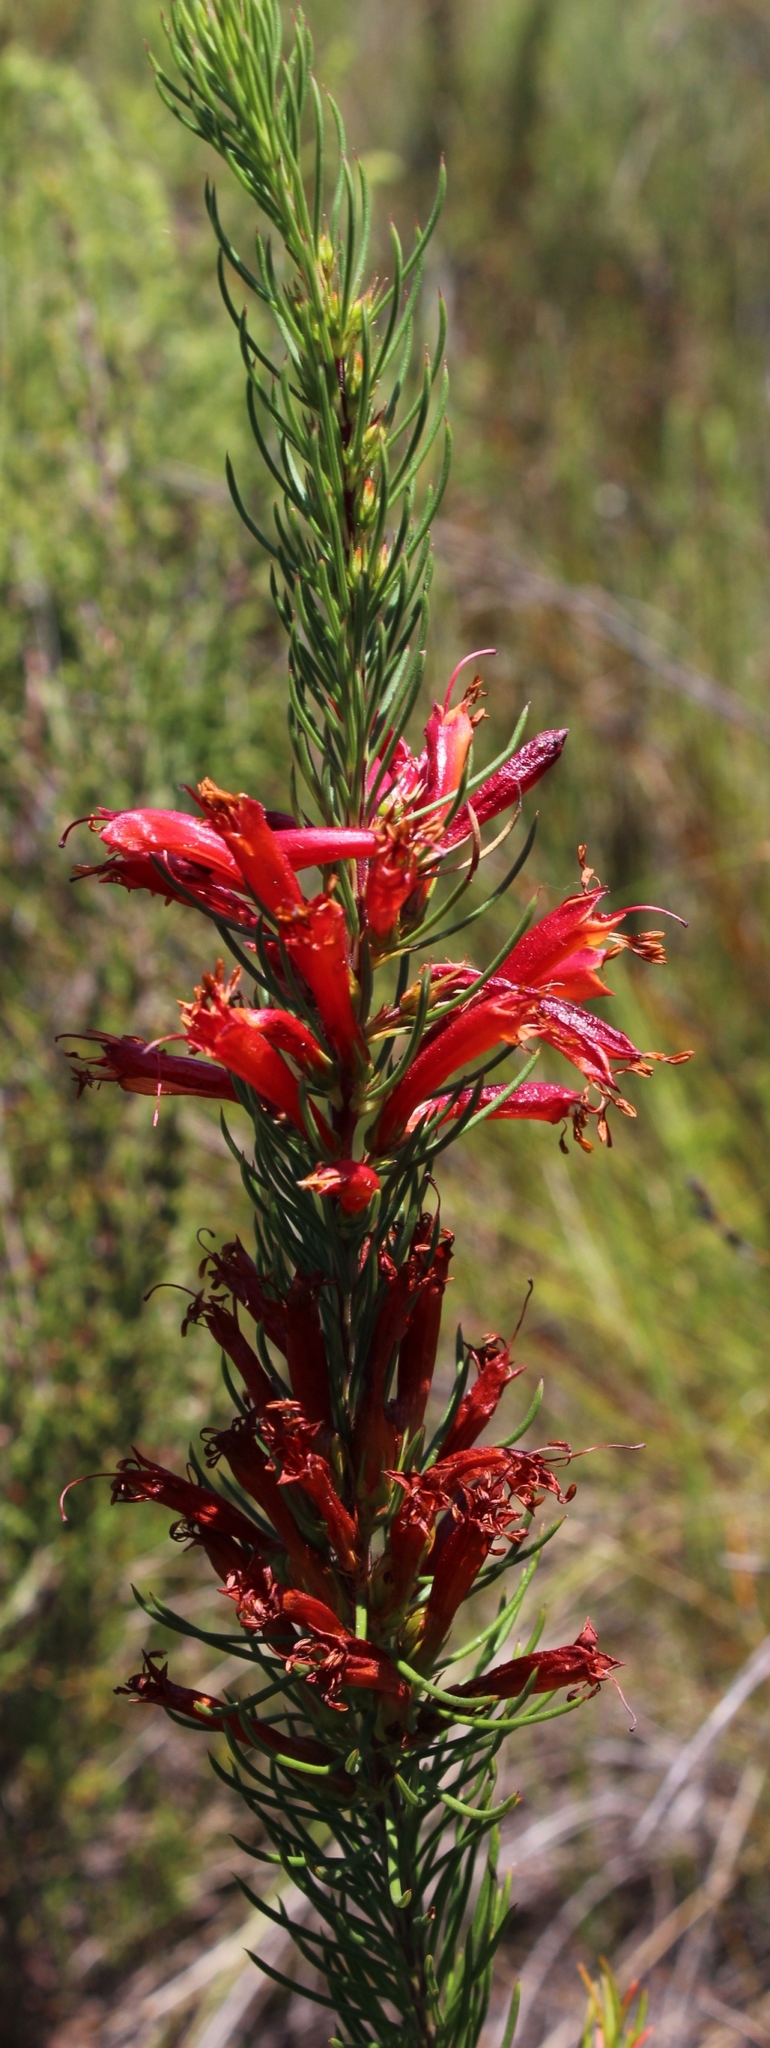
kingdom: Plantae
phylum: Tracheophyta
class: Magnoliopsida
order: Ericales
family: Ericaceae
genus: Erica
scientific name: Erica grandiflora
